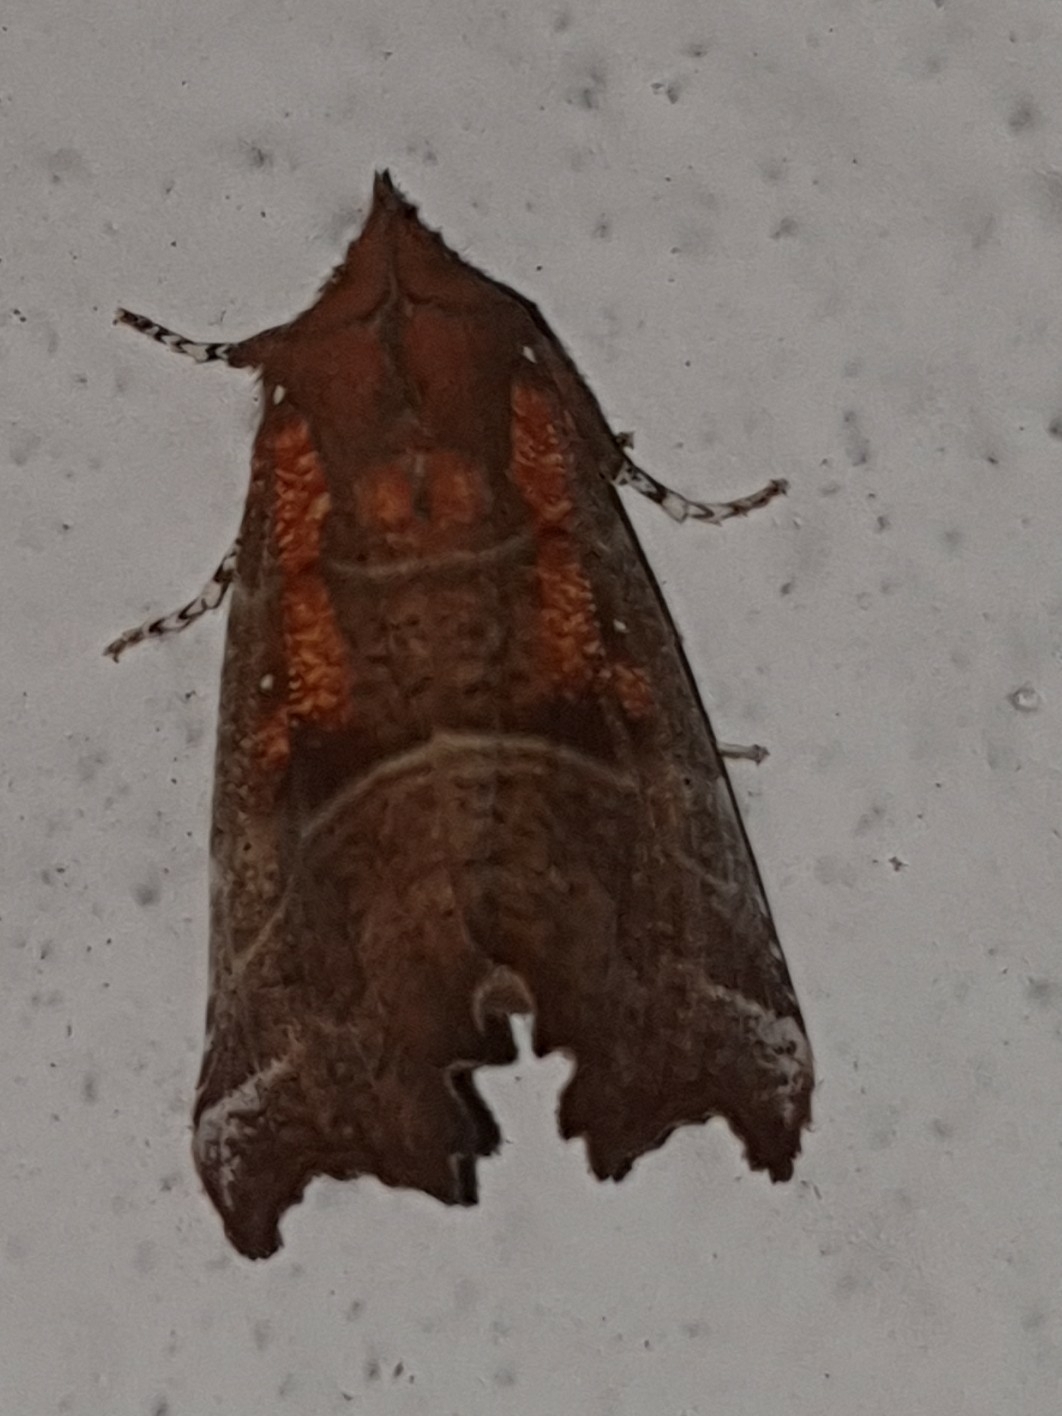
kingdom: Animalia
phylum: Arthropoda
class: Insecta
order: Lepidoptera
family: Erebidae
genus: Scoliopteryx
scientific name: Scoliopteryx libatrix
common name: Herald
